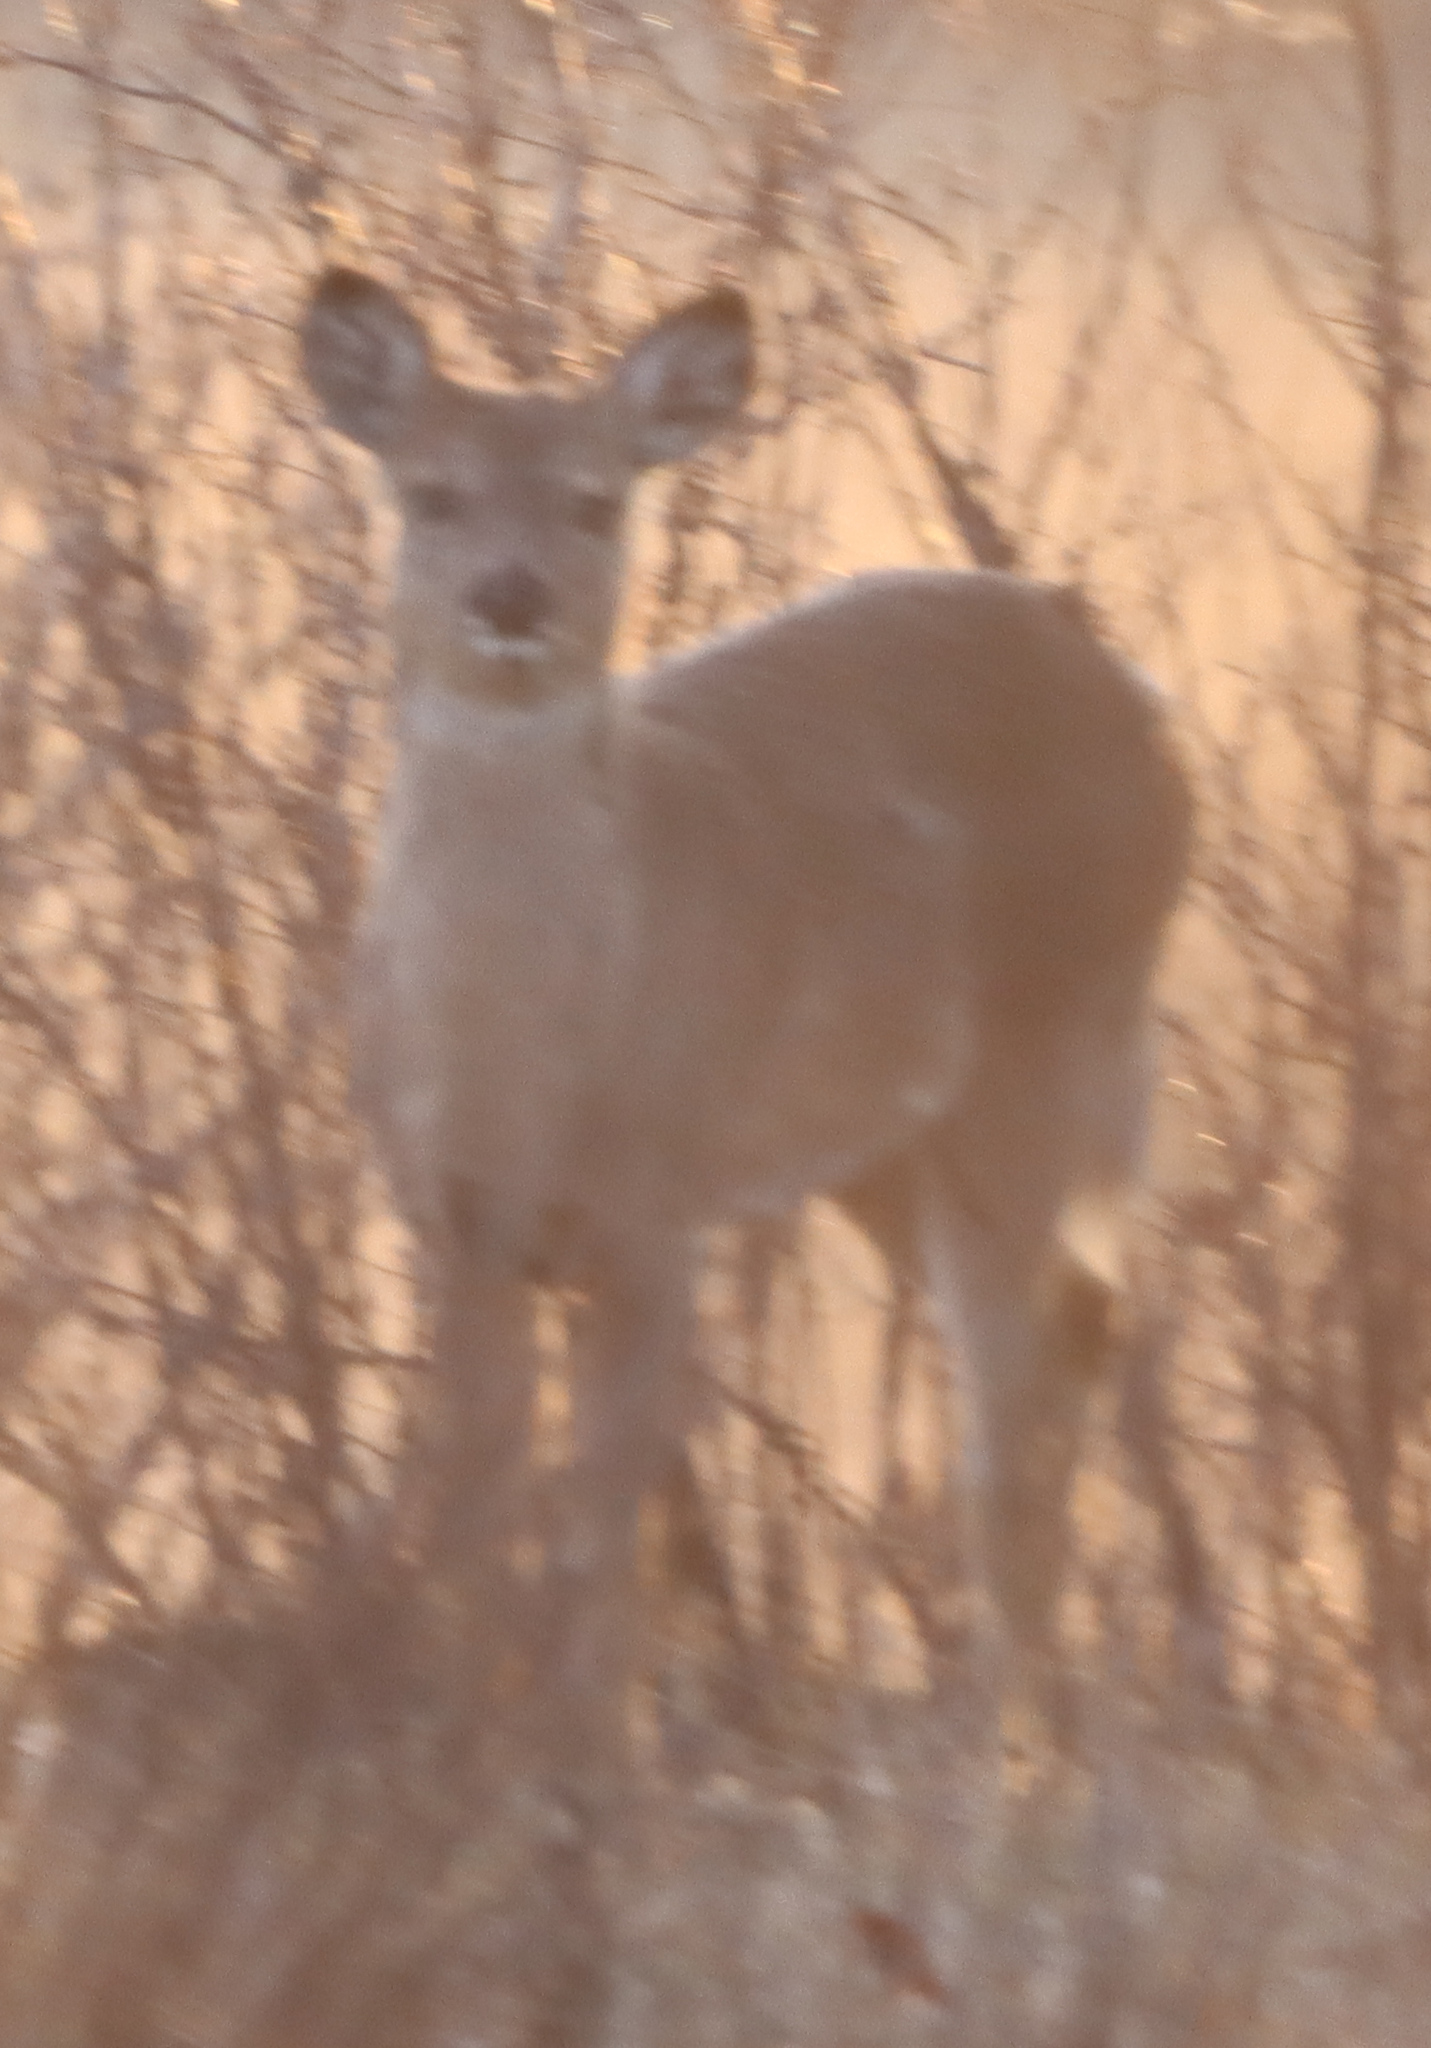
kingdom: Animalia
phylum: Chordata
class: Mammalia
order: Artiodactyla
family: Cervidae
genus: Odocoileus
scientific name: Odocoileus virginianus
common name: White-tailed deer
